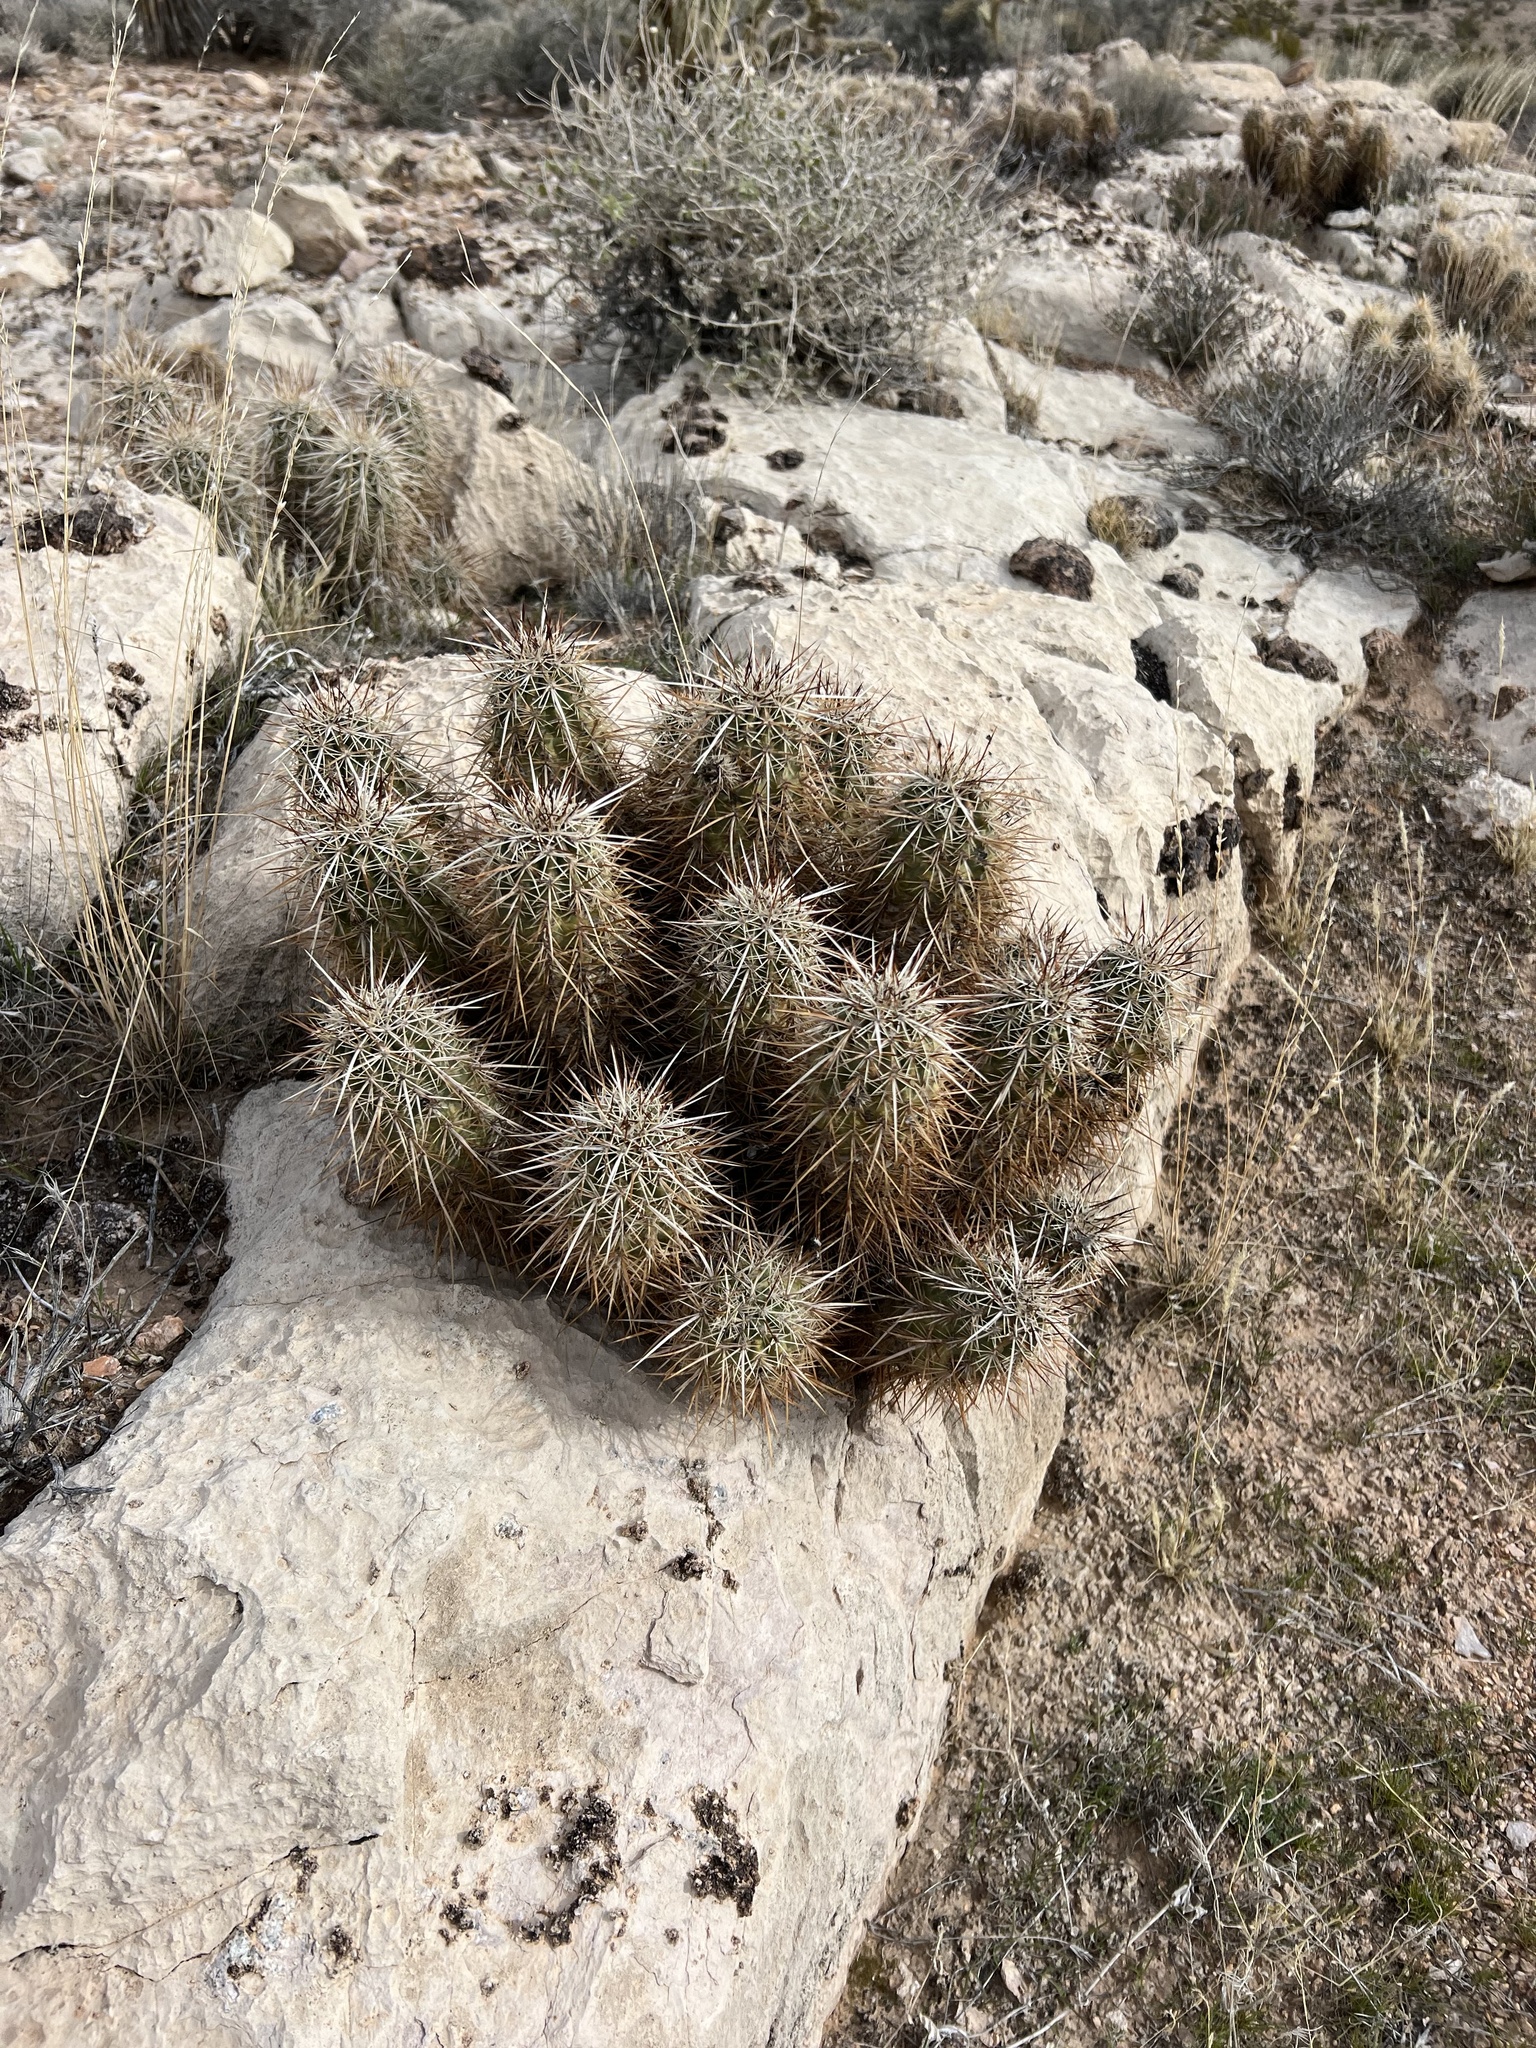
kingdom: Plantae
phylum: Tracheophyta
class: Magnoliopsida
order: Caryophyllales
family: Cactaceae
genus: Echinocereus
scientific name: Echinocereus engelmannii
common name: Engelmann's hedgehog cactus
